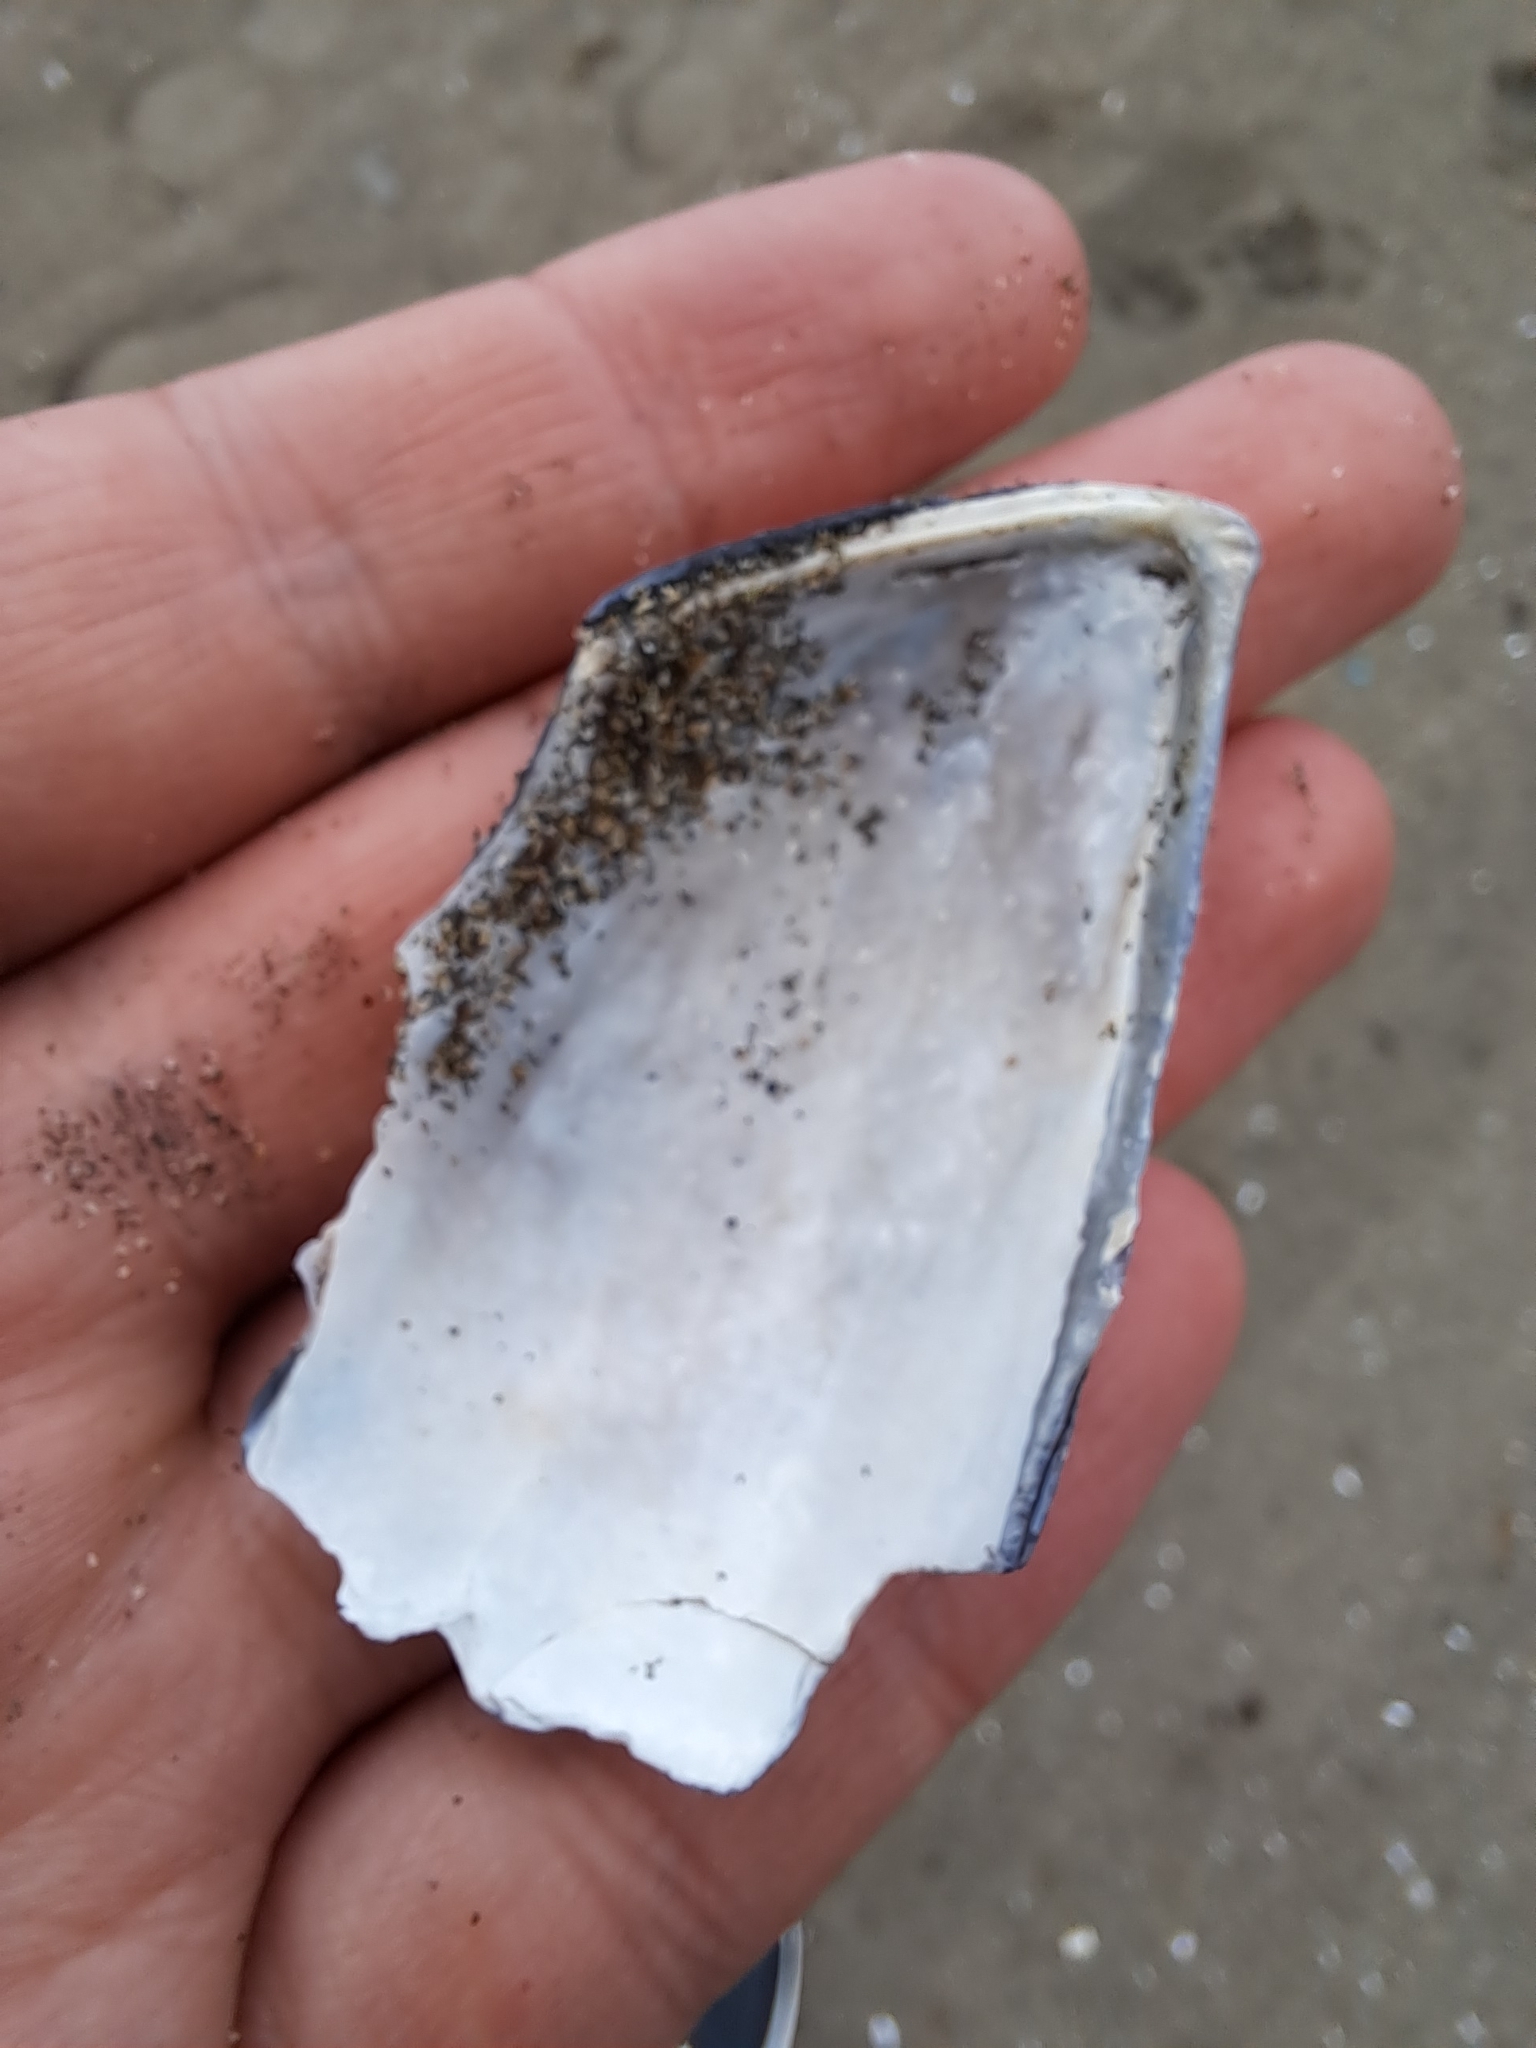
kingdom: Animalia
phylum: Mollusca
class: Bivalvia
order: Mytilida
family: Mytilidae
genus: Mytilus
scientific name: Mytilus galloprovincialis
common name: Mediterranean mussel
